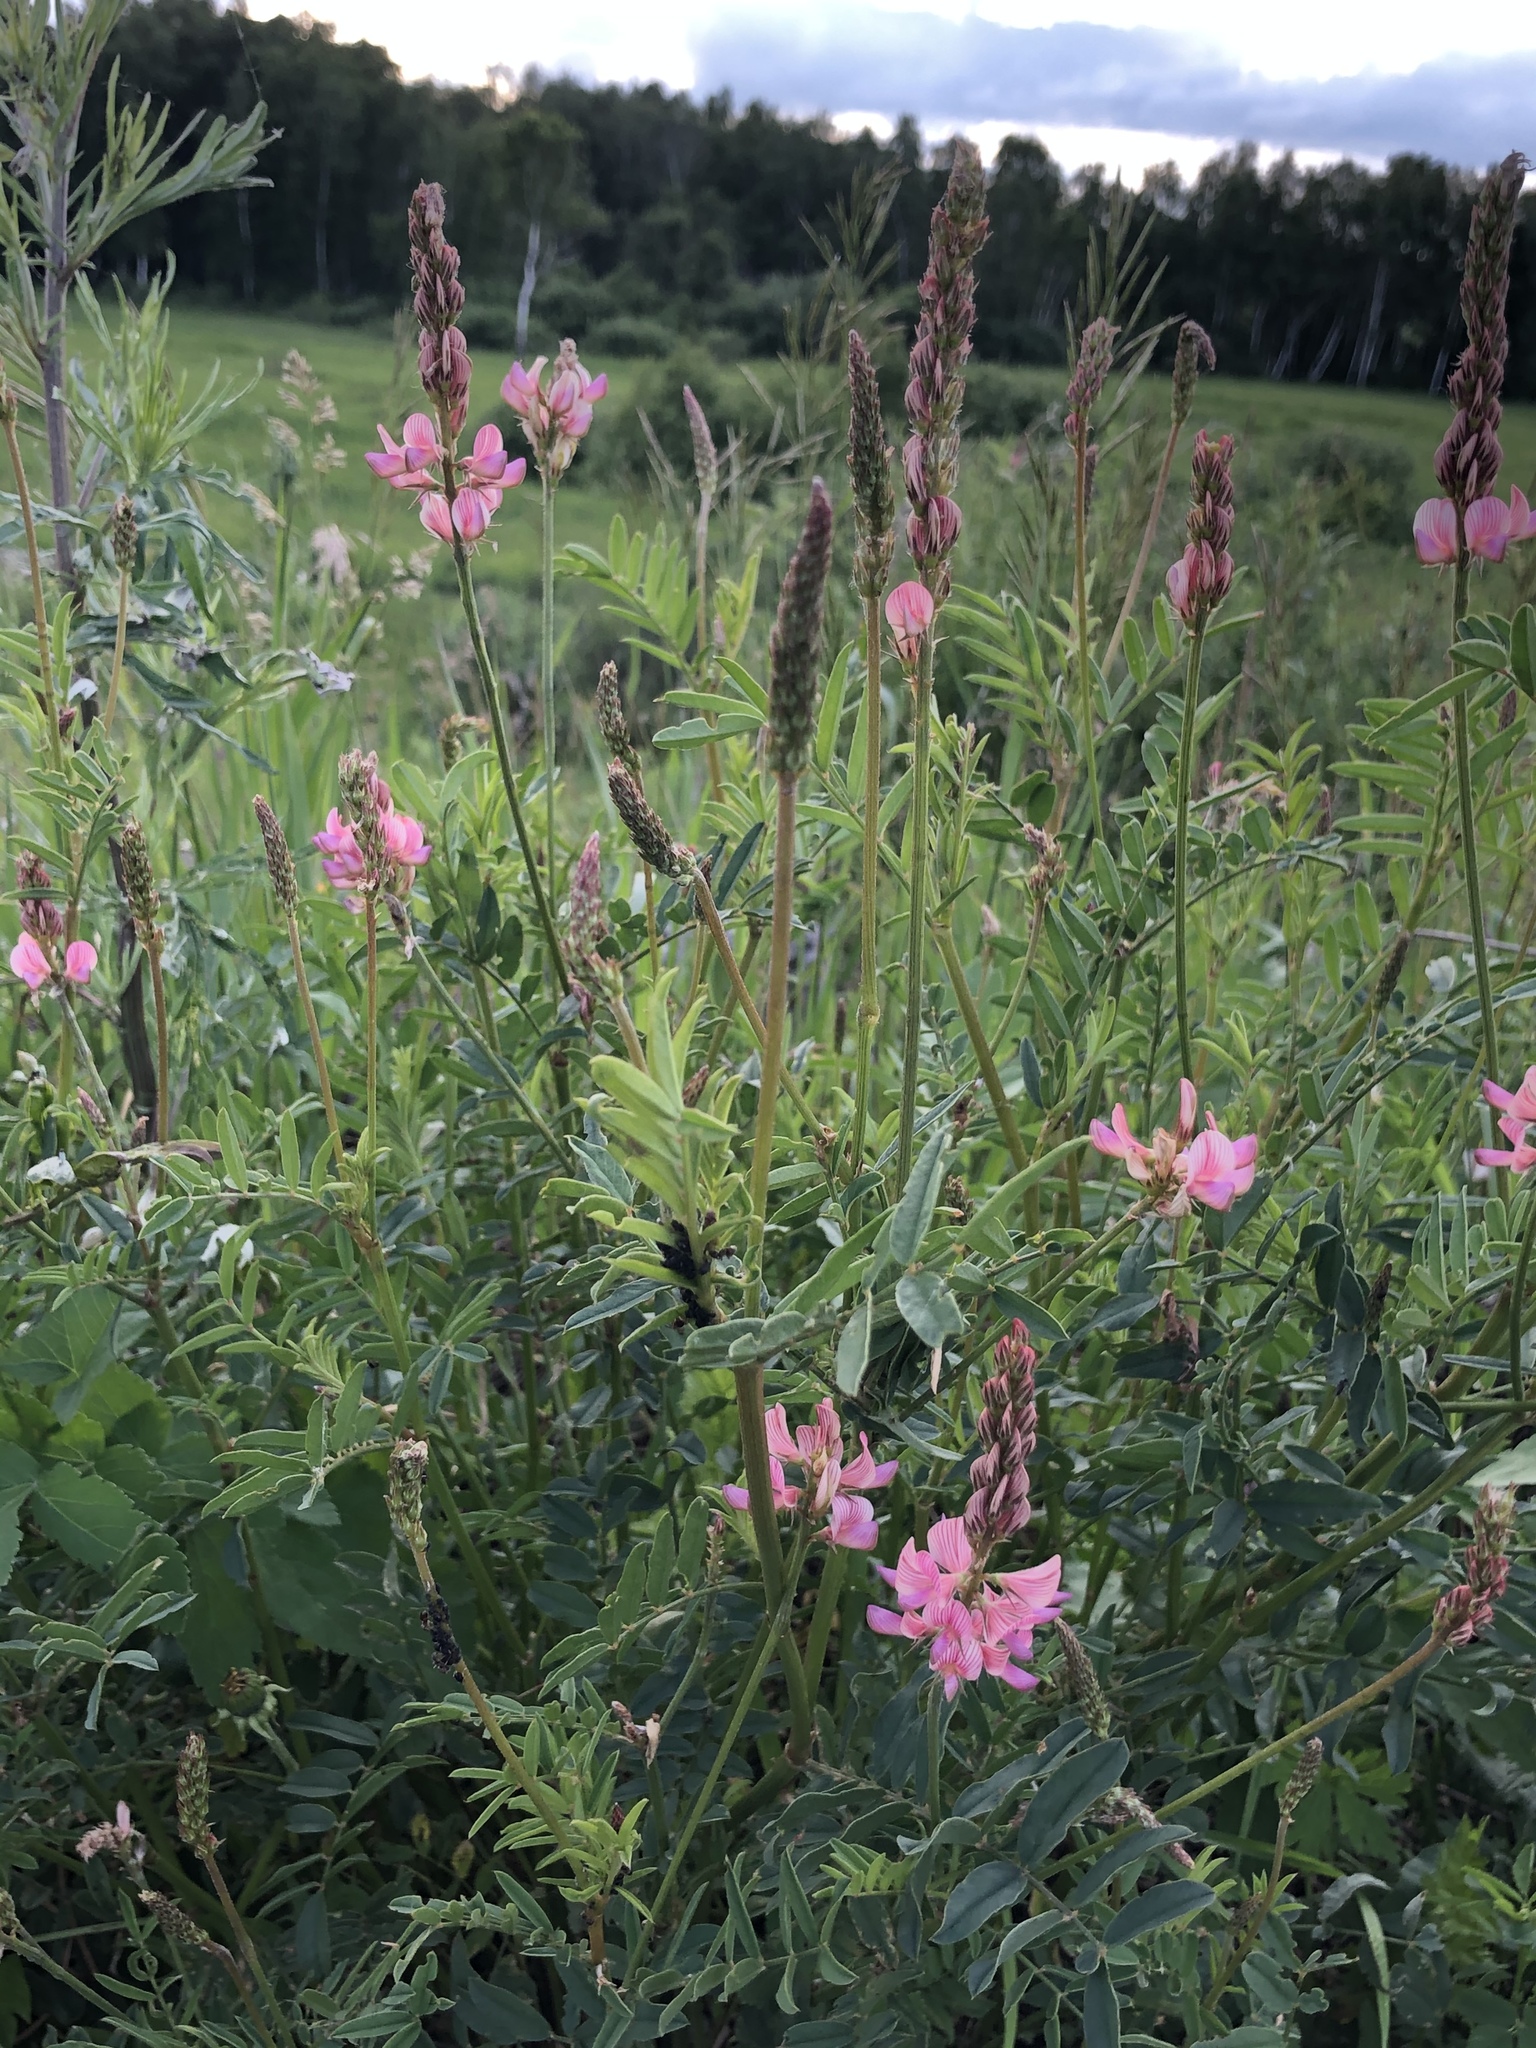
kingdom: Plantae
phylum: Tracheophyta
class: Magnoliopsida
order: Fabales
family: Fabaceae
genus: Onobrychis
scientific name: Onobrychis arenaria
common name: Sand esparcet
